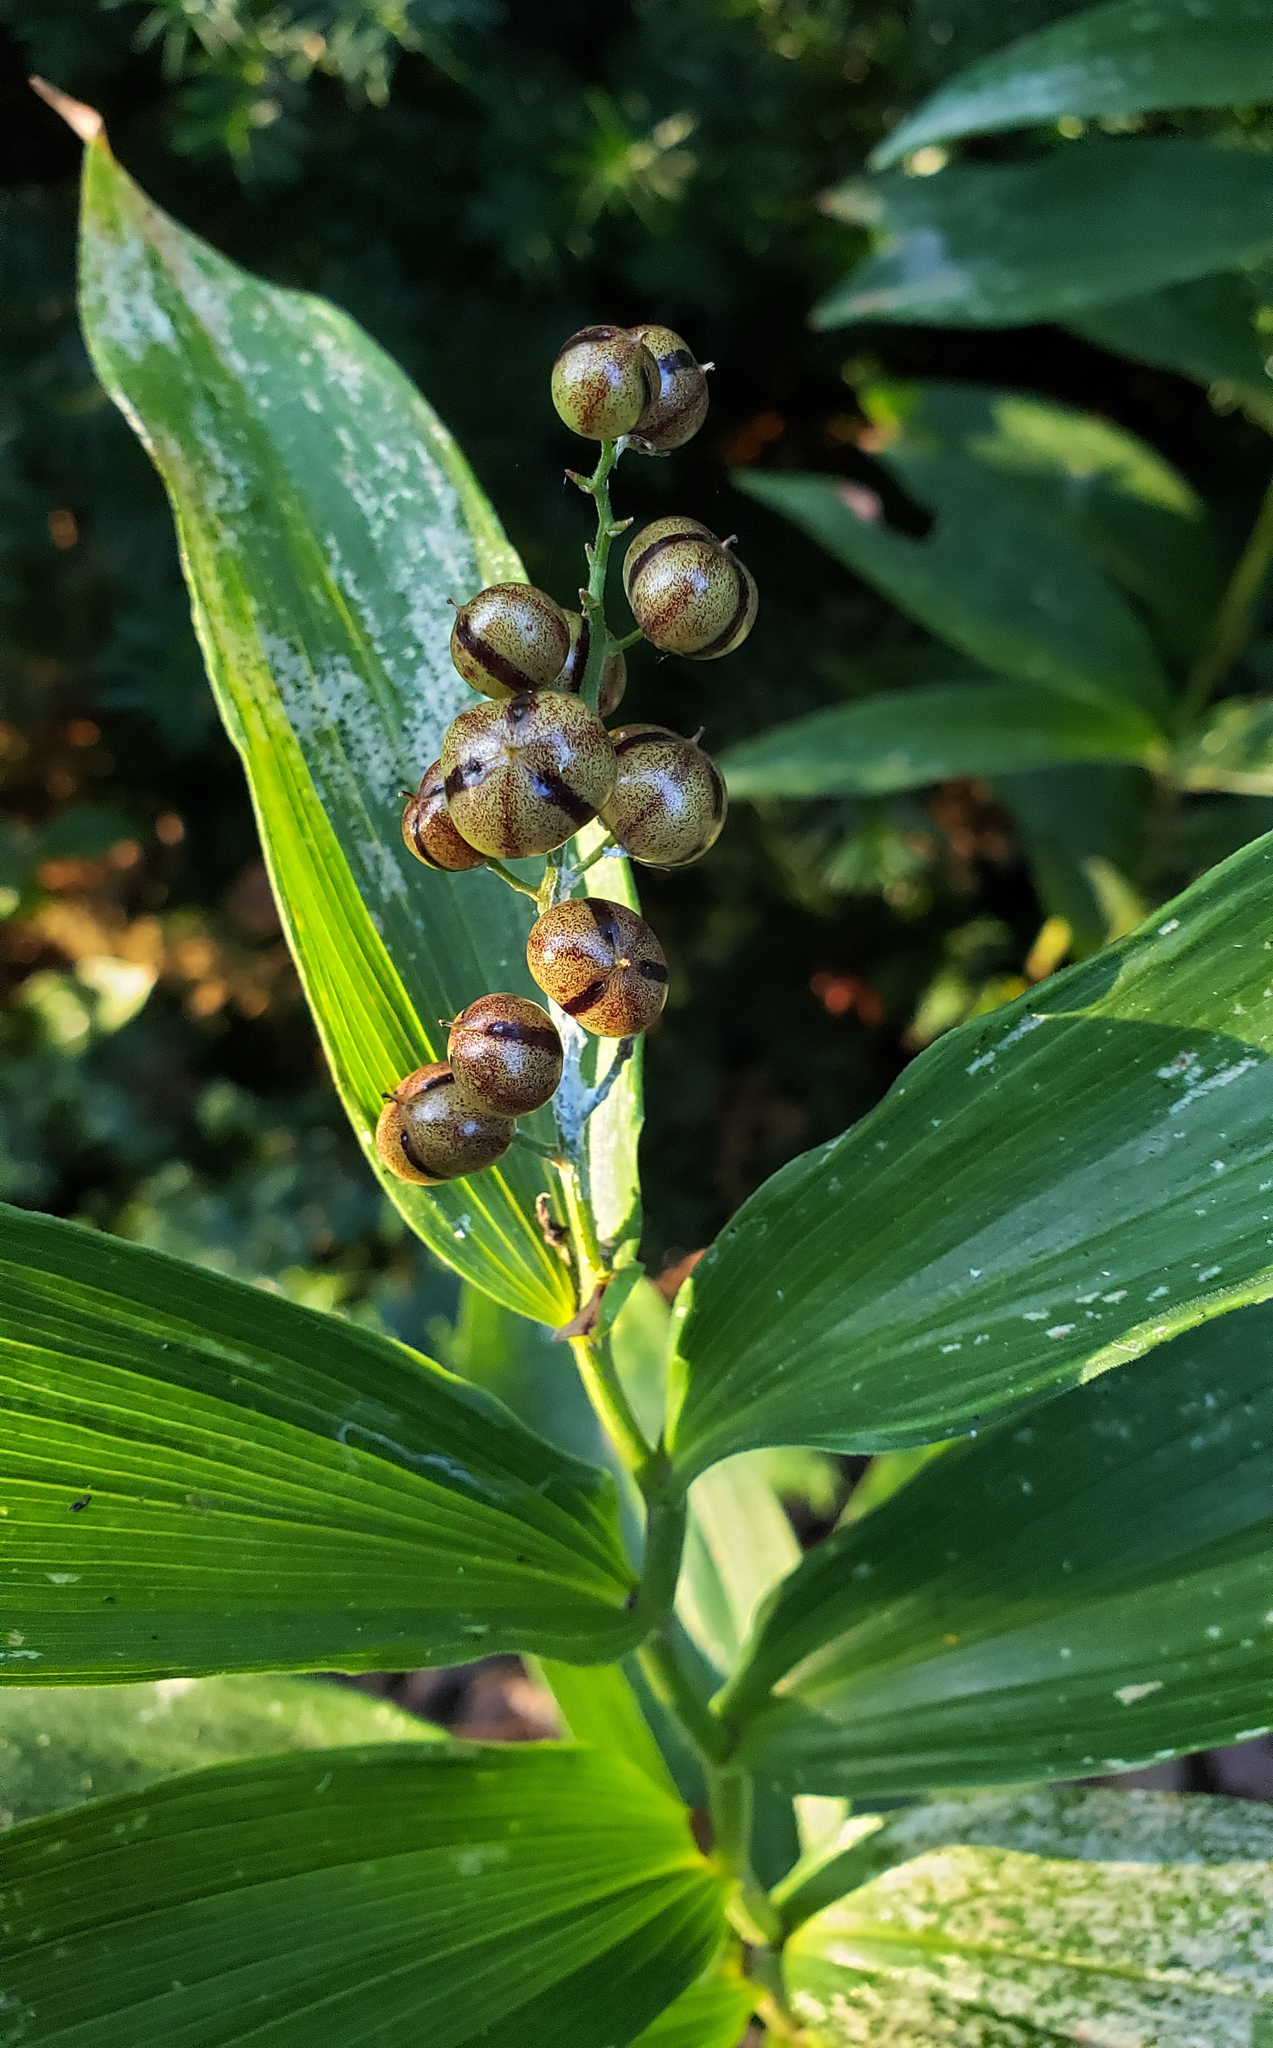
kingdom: Plantae
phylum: Tracheophyta
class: Liliopsida
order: Asparagales
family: Asparagaceae
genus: Maianthemum
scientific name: Maianthemum stellatum
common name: Little false solomon's seal
